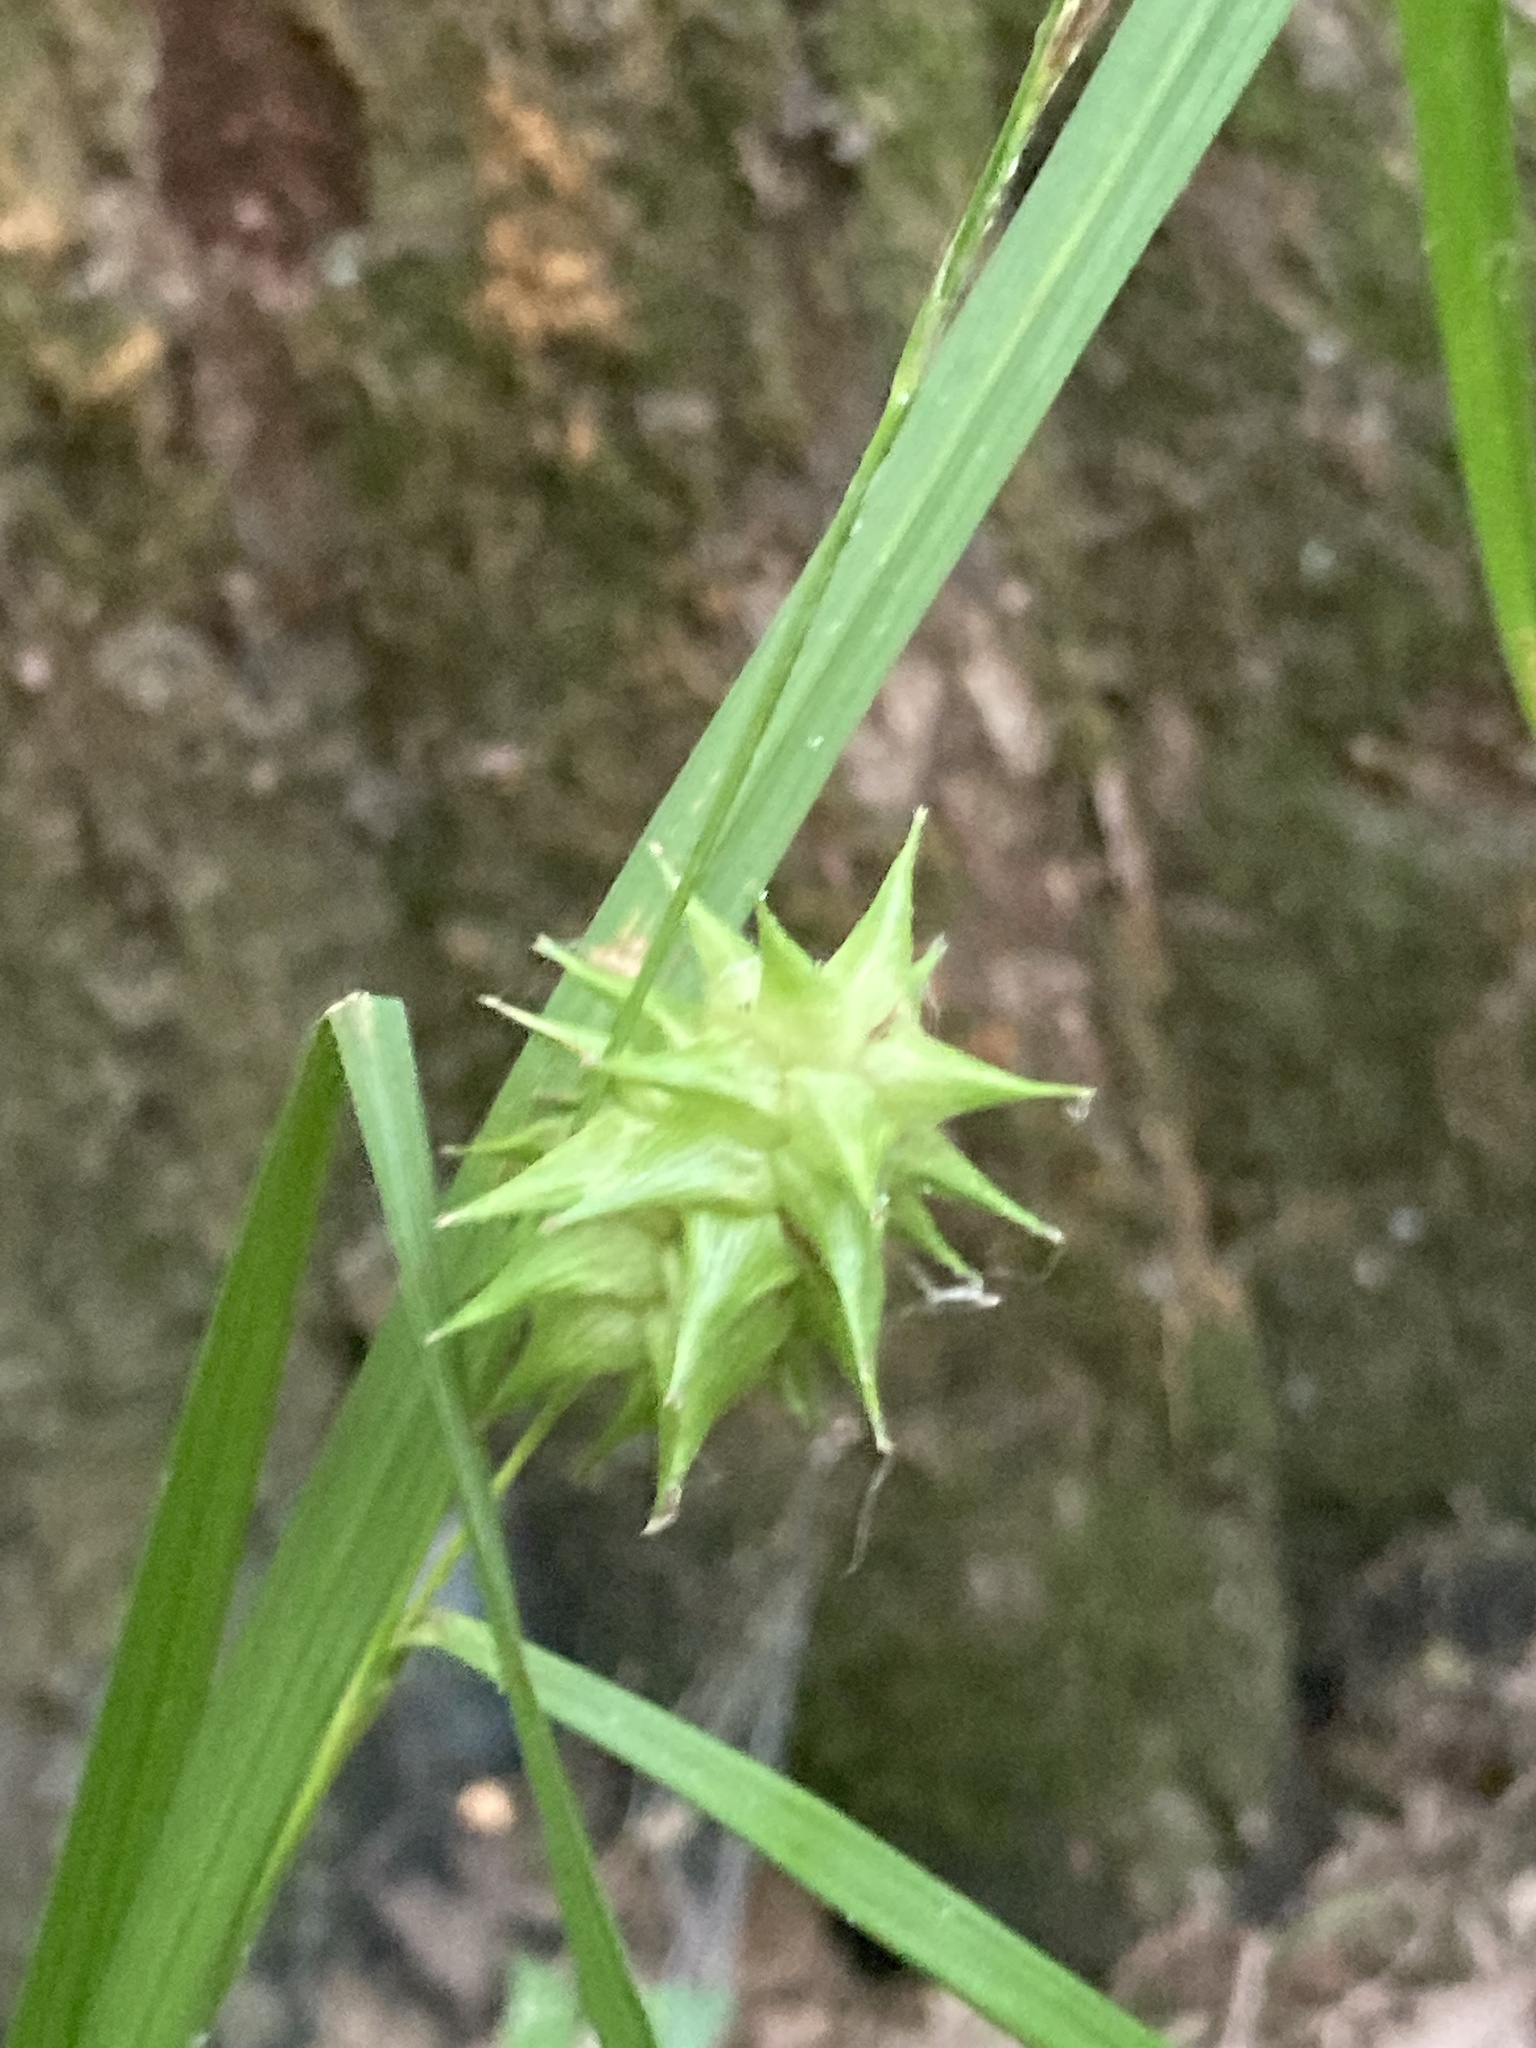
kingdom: Plantae
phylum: Tracheophyta
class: Liliopsida
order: Poales
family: Cyperaceae
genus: Carex
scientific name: Carex grayi
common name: Asa gray's sedge
